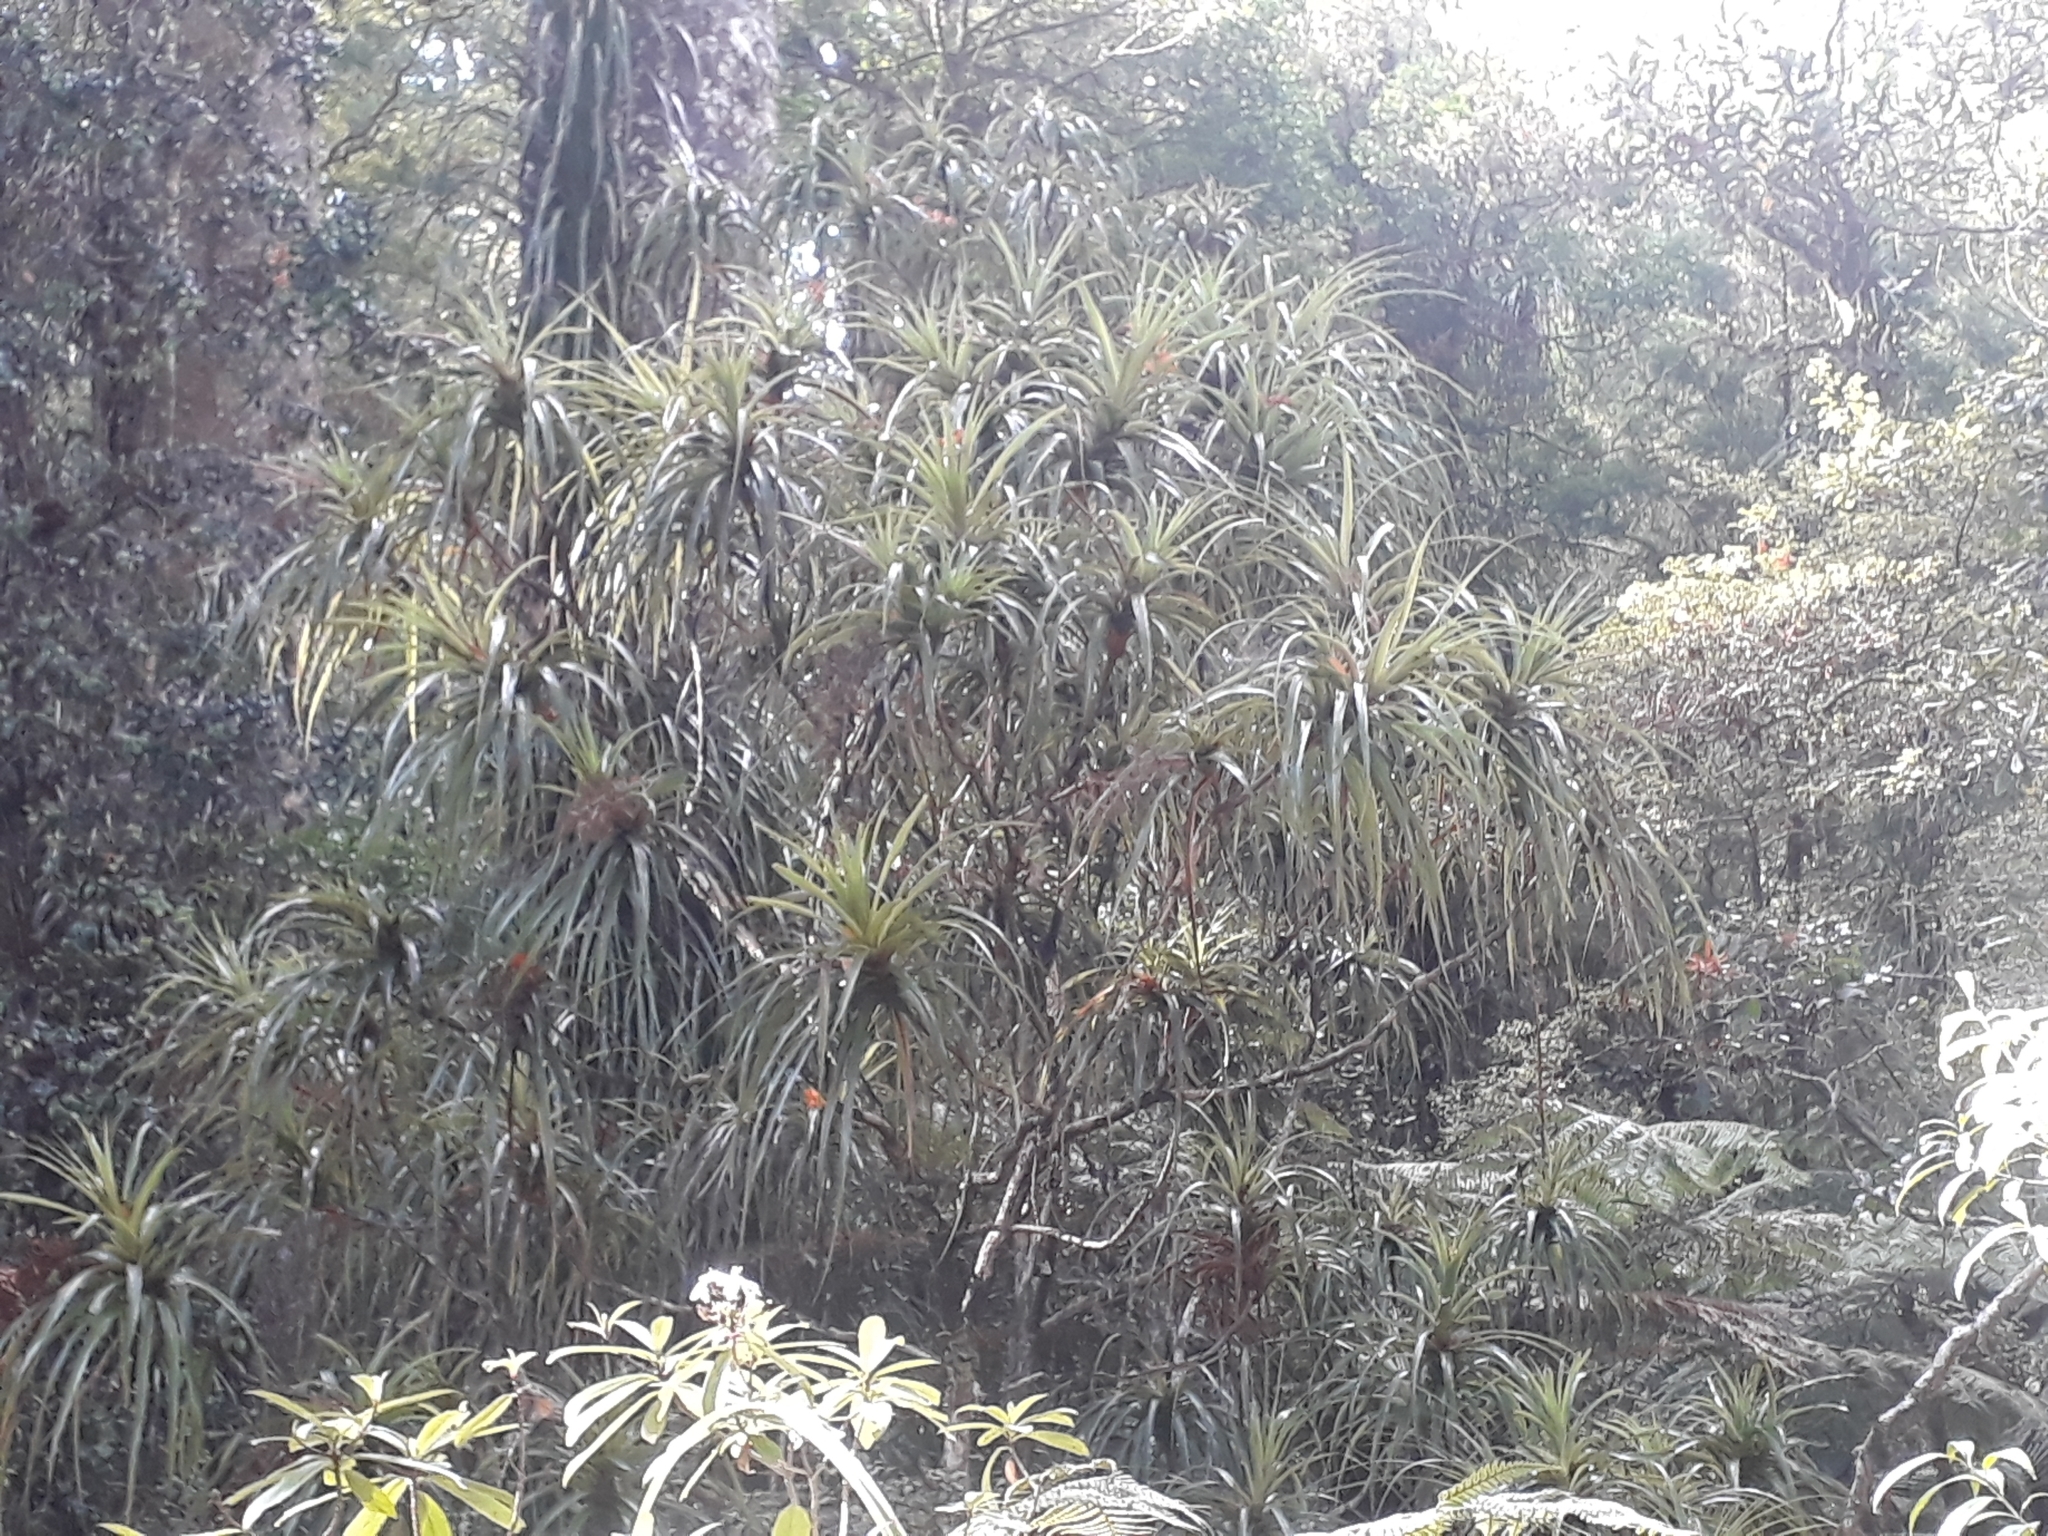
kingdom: Plantae
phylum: Tracheophyta
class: Magnoliopsida
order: Ericales
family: Ericaceae
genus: Dracophyllum
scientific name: Dracophyllum latifolium
